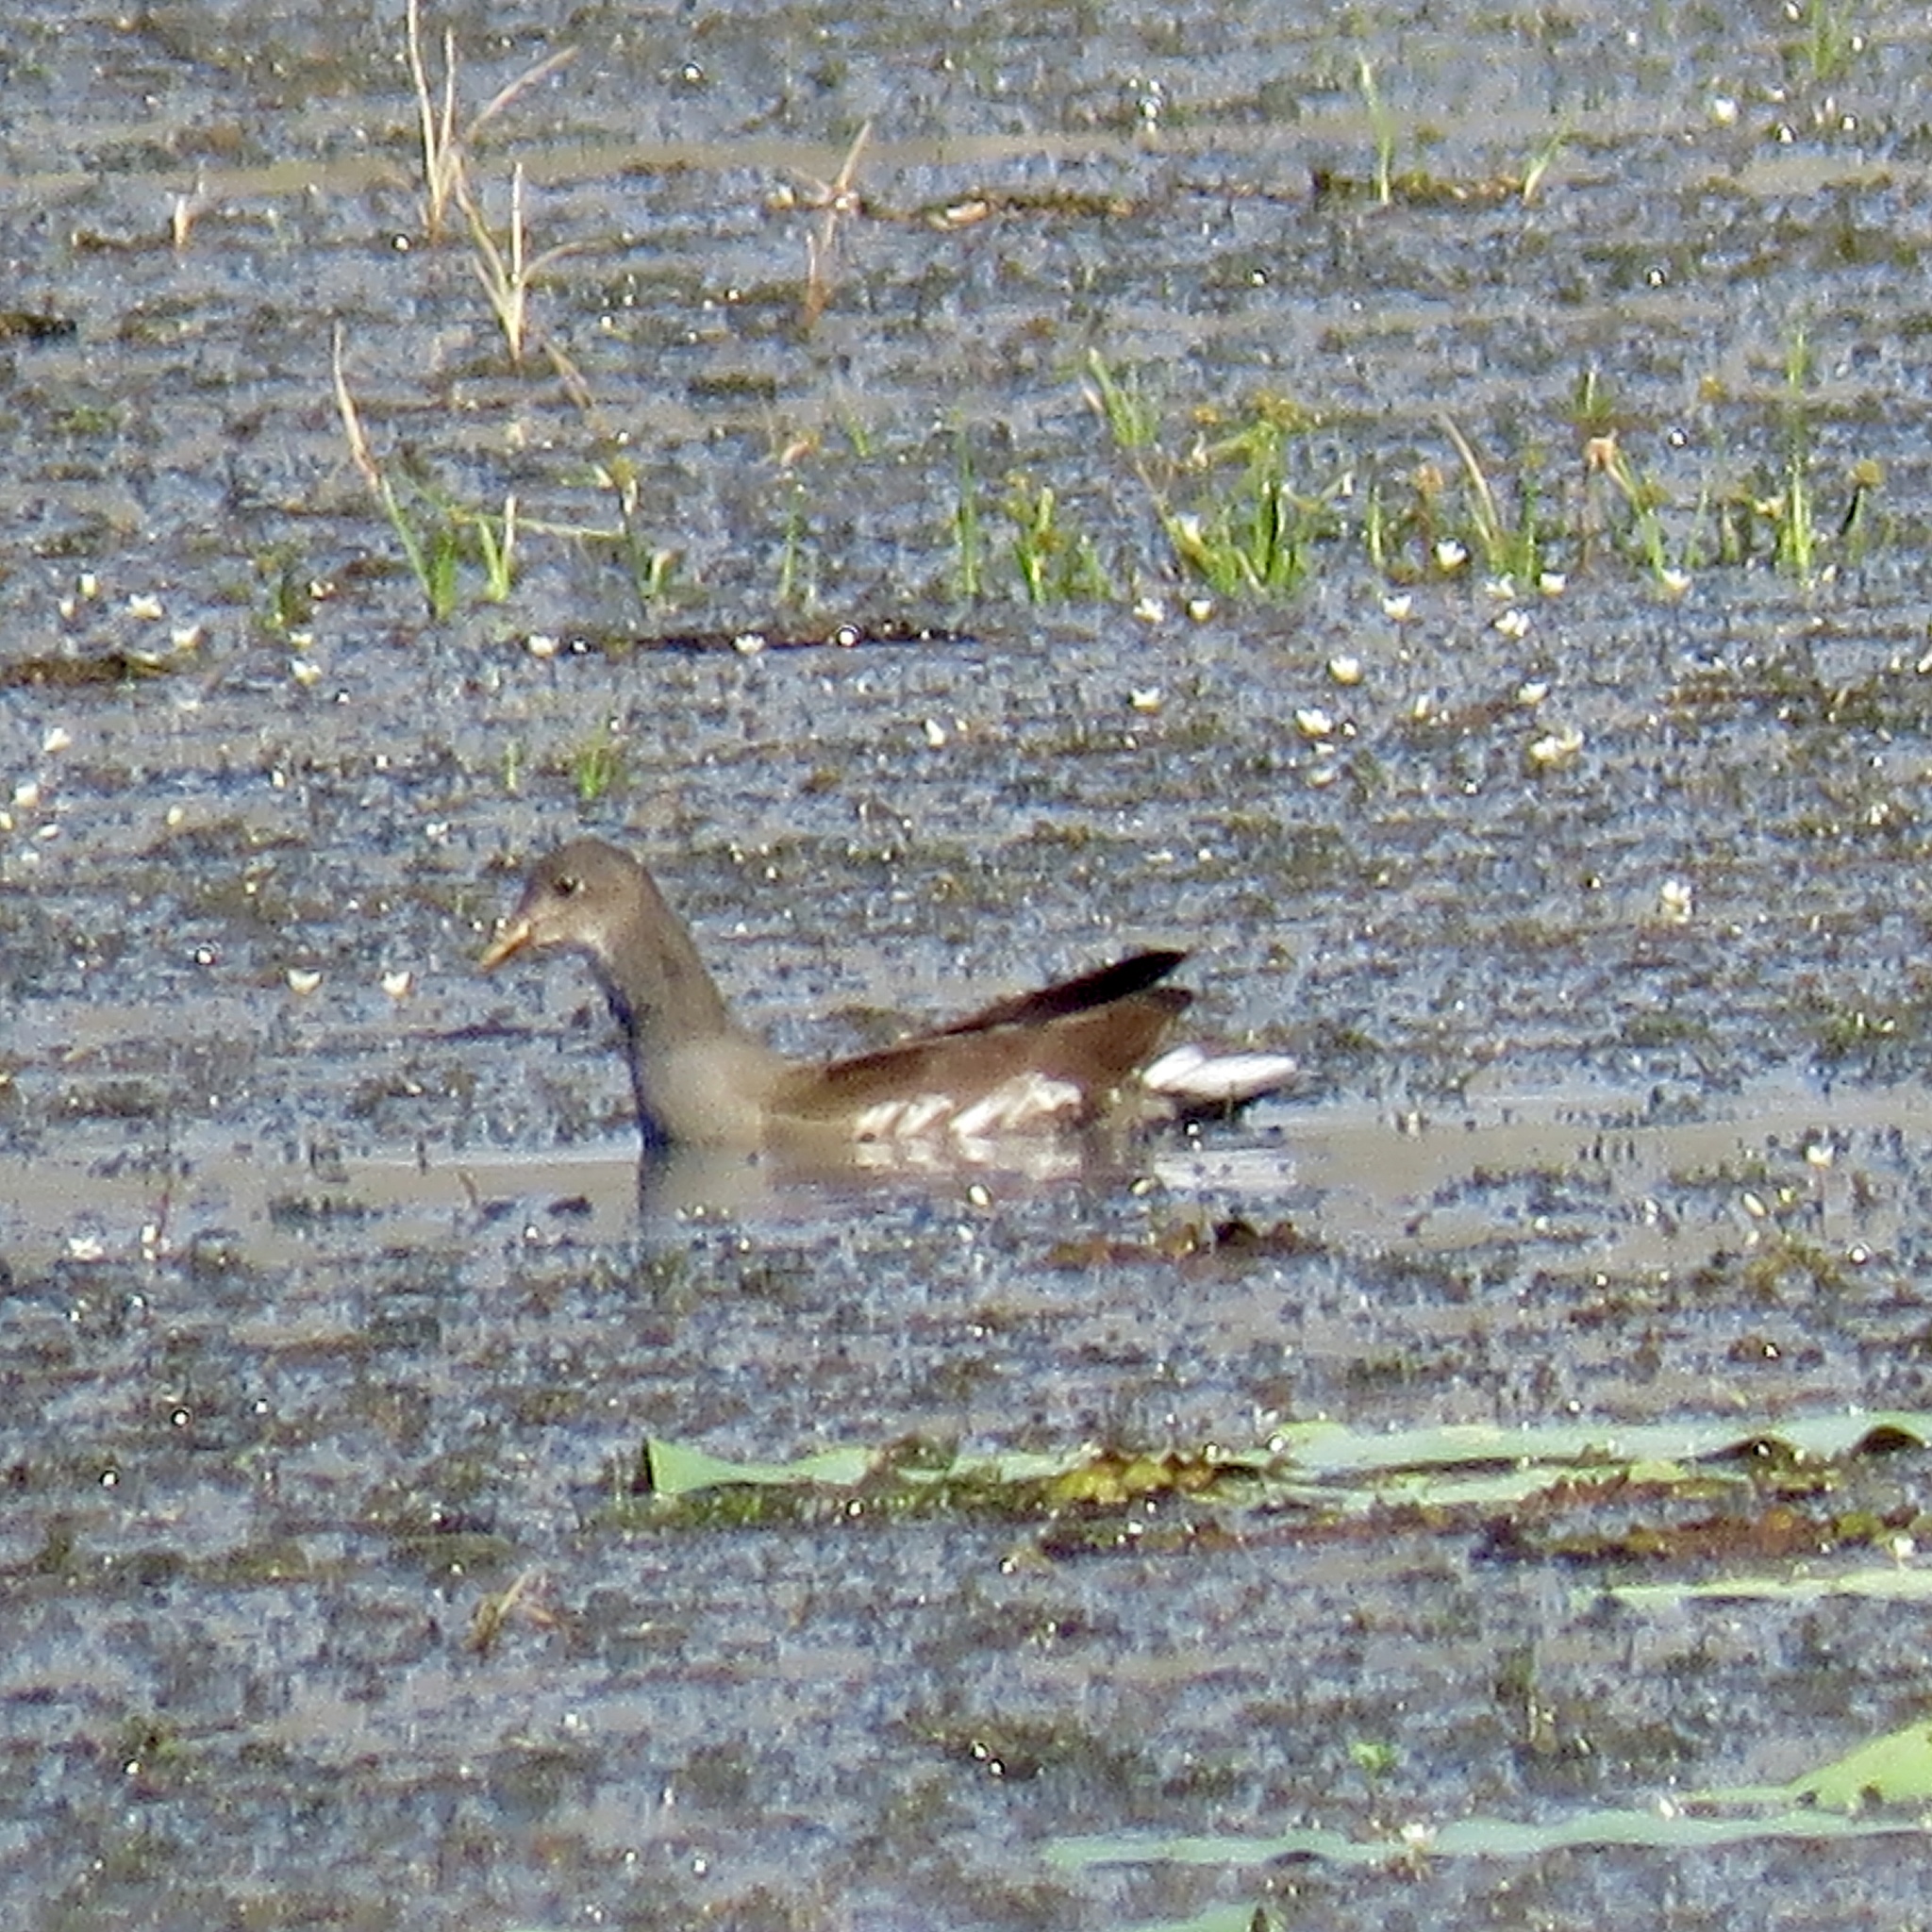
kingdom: Animalia
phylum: Chordata
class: Aves
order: Gruiformes
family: Rallidae
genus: Gallinula
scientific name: Gallinula chloropus
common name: Common moorhen
